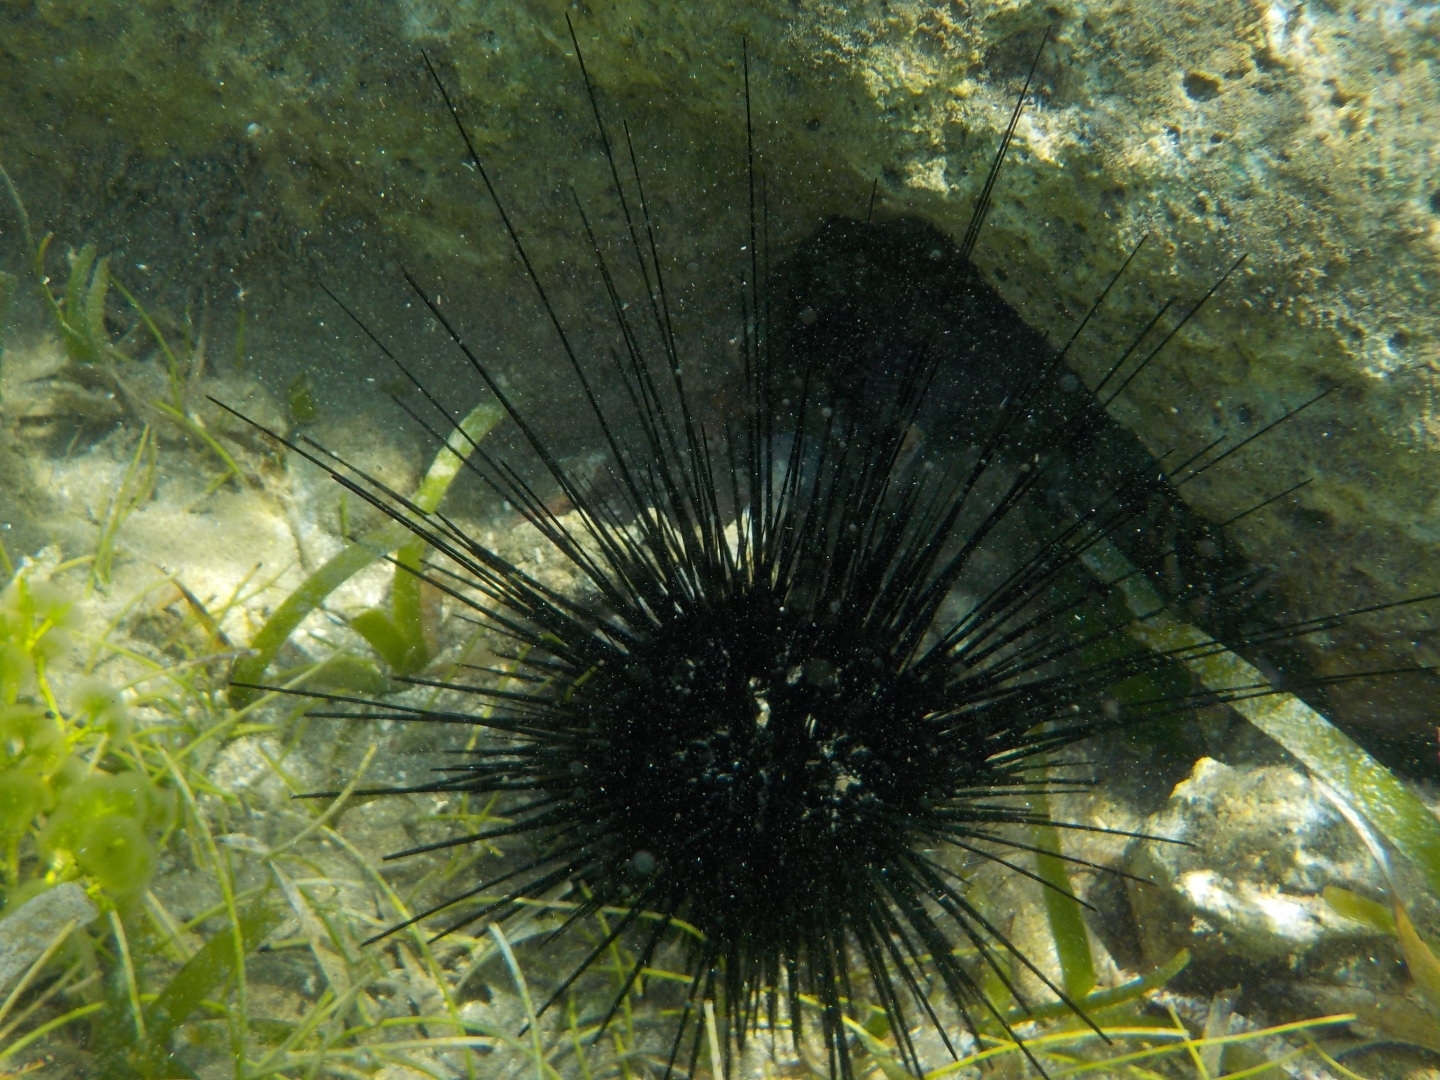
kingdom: Animalia
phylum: Echinodermata
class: Echinoidea
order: Diadematoida
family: Diadematidae
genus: Diadema
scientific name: Diadema antillarum
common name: Spiny urchin
